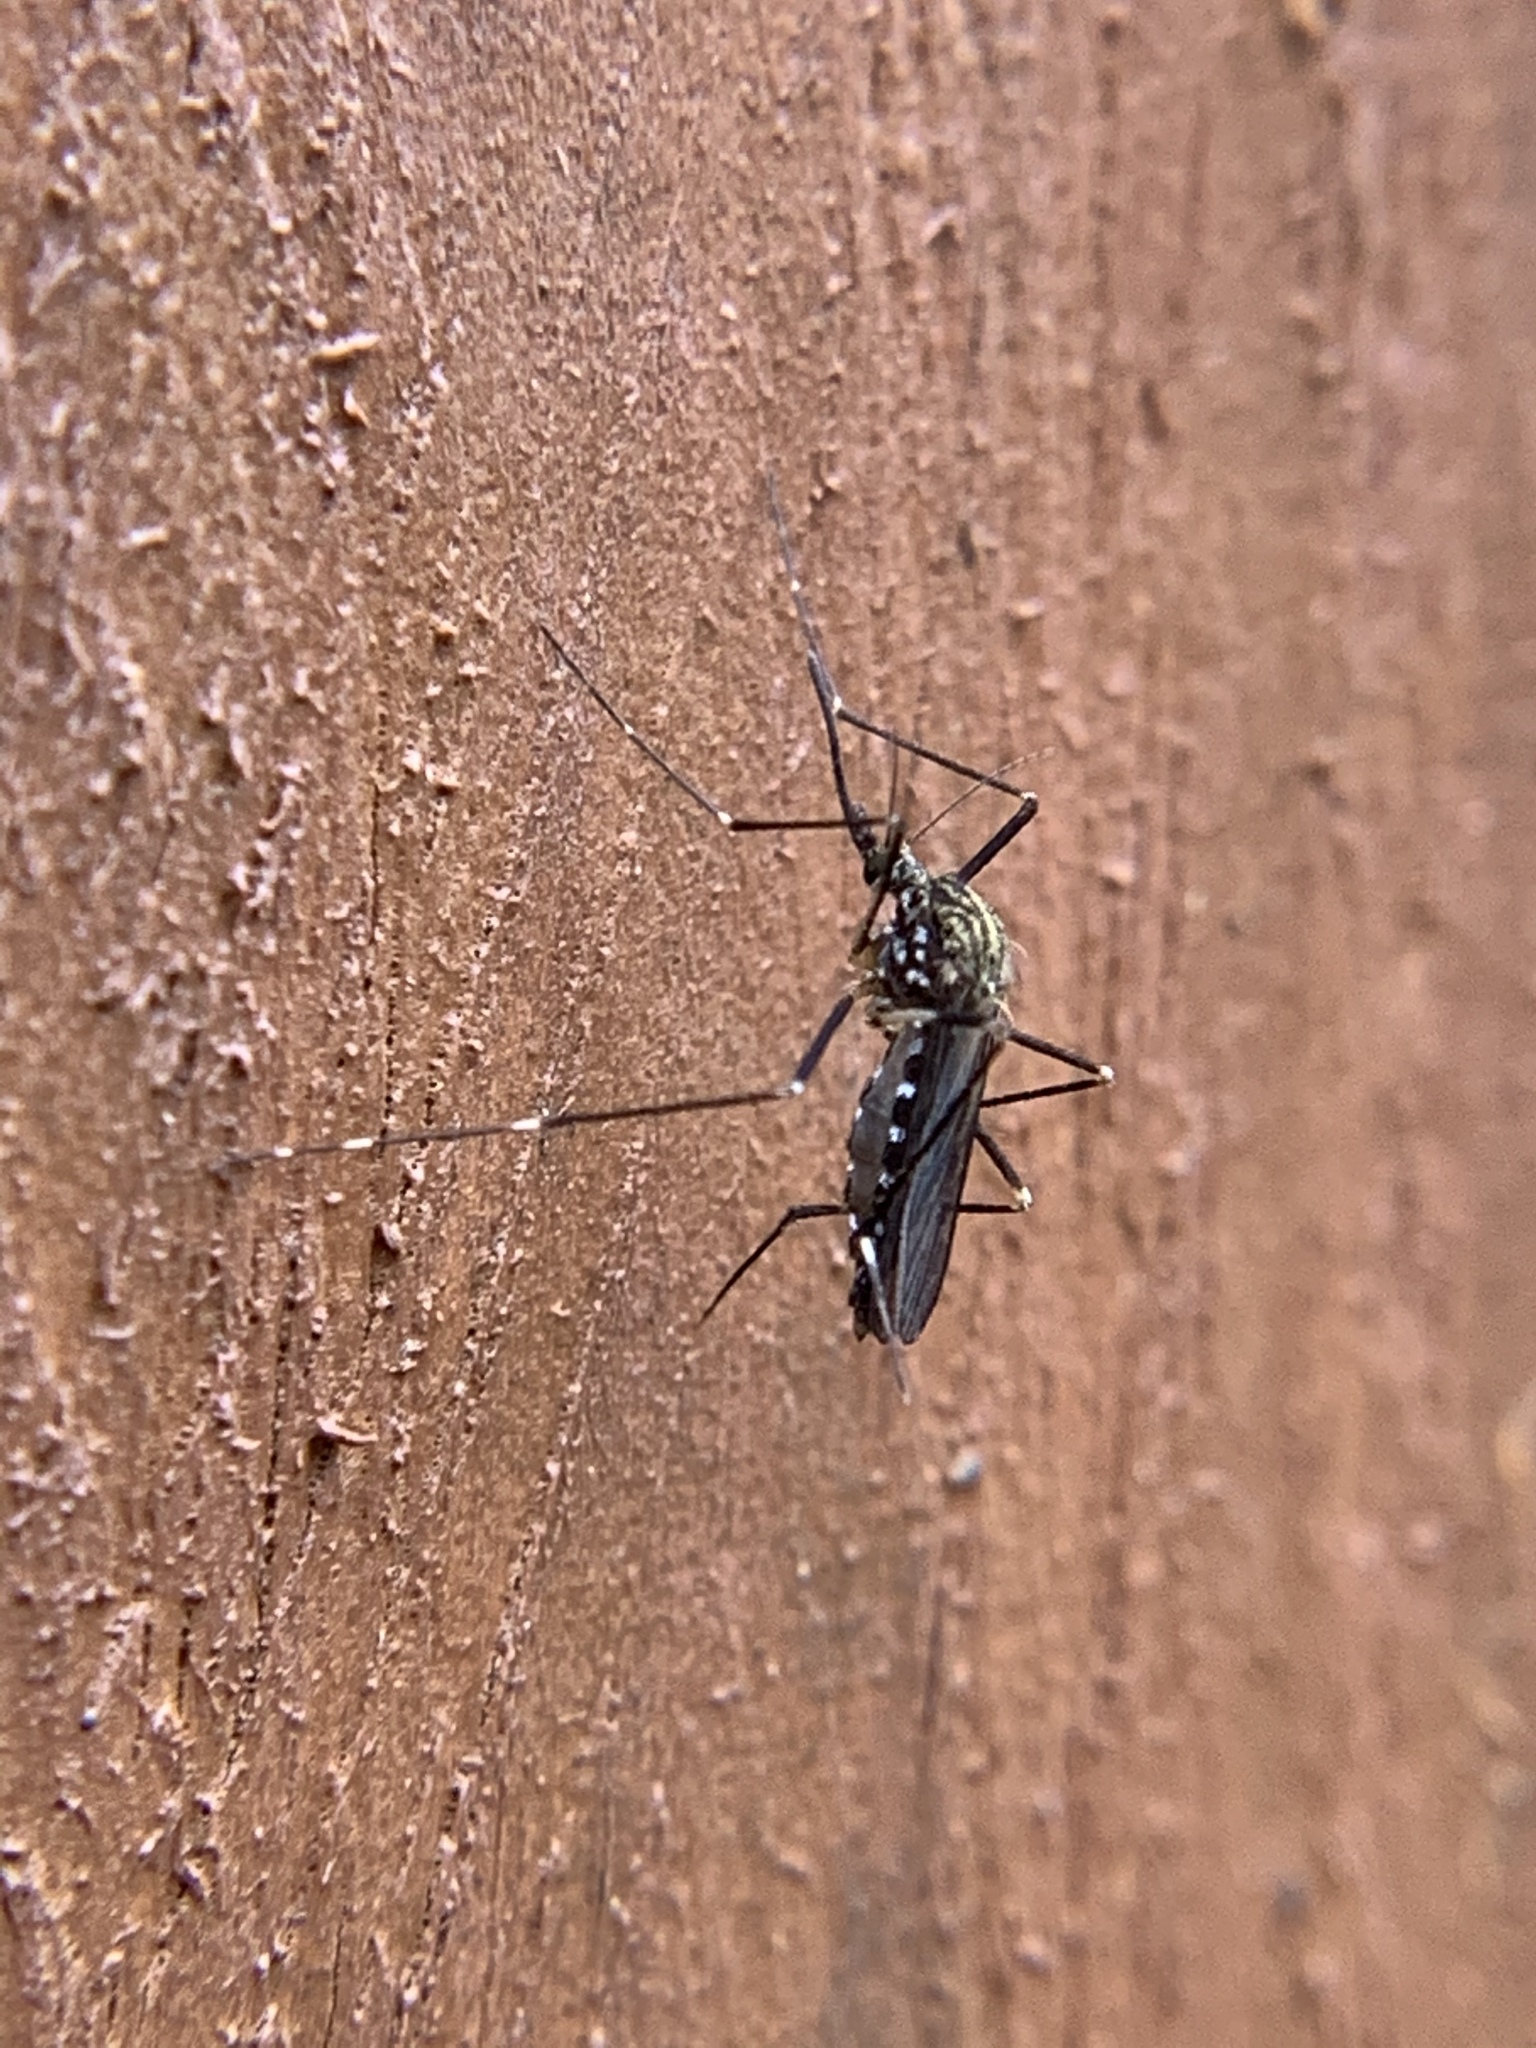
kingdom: Animalia
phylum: Arthropoda
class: Insecta
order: Diptera
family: Culicidae
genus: Aedes
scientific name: Aedes japonicus
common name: Asian bush mosquito
